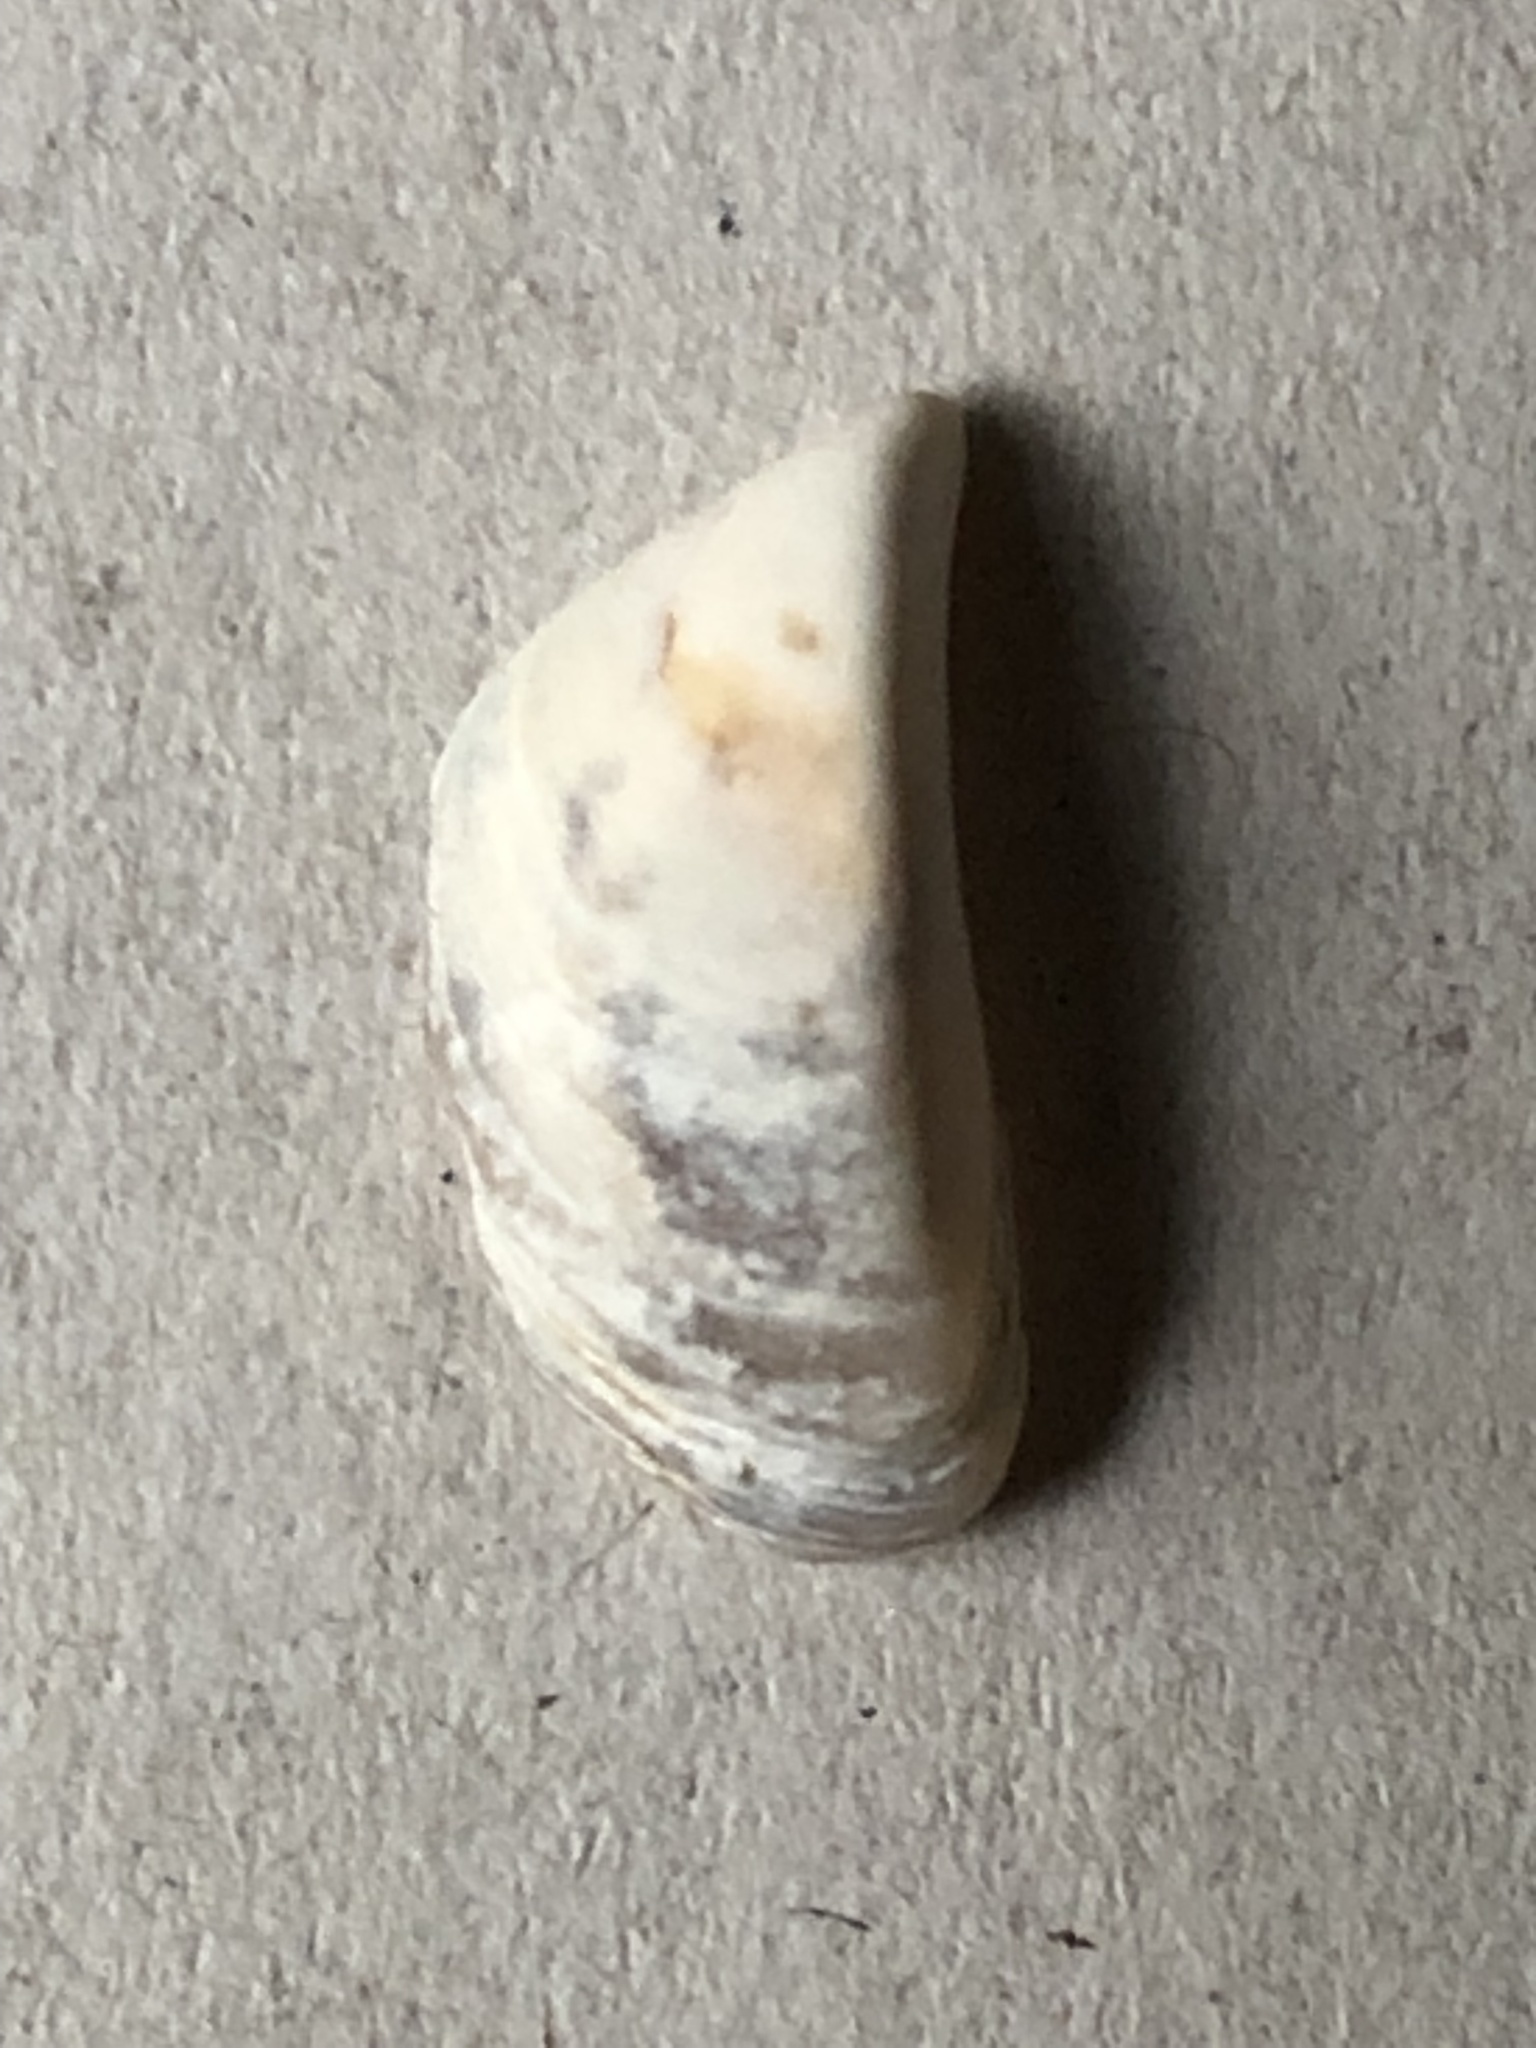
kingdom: Animalia
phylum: Mollusca
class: Bivalvia
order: Myida
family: Dreissenidae
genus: Dreissena
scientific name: Dreissena polymorpha
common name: Zebra mussel
